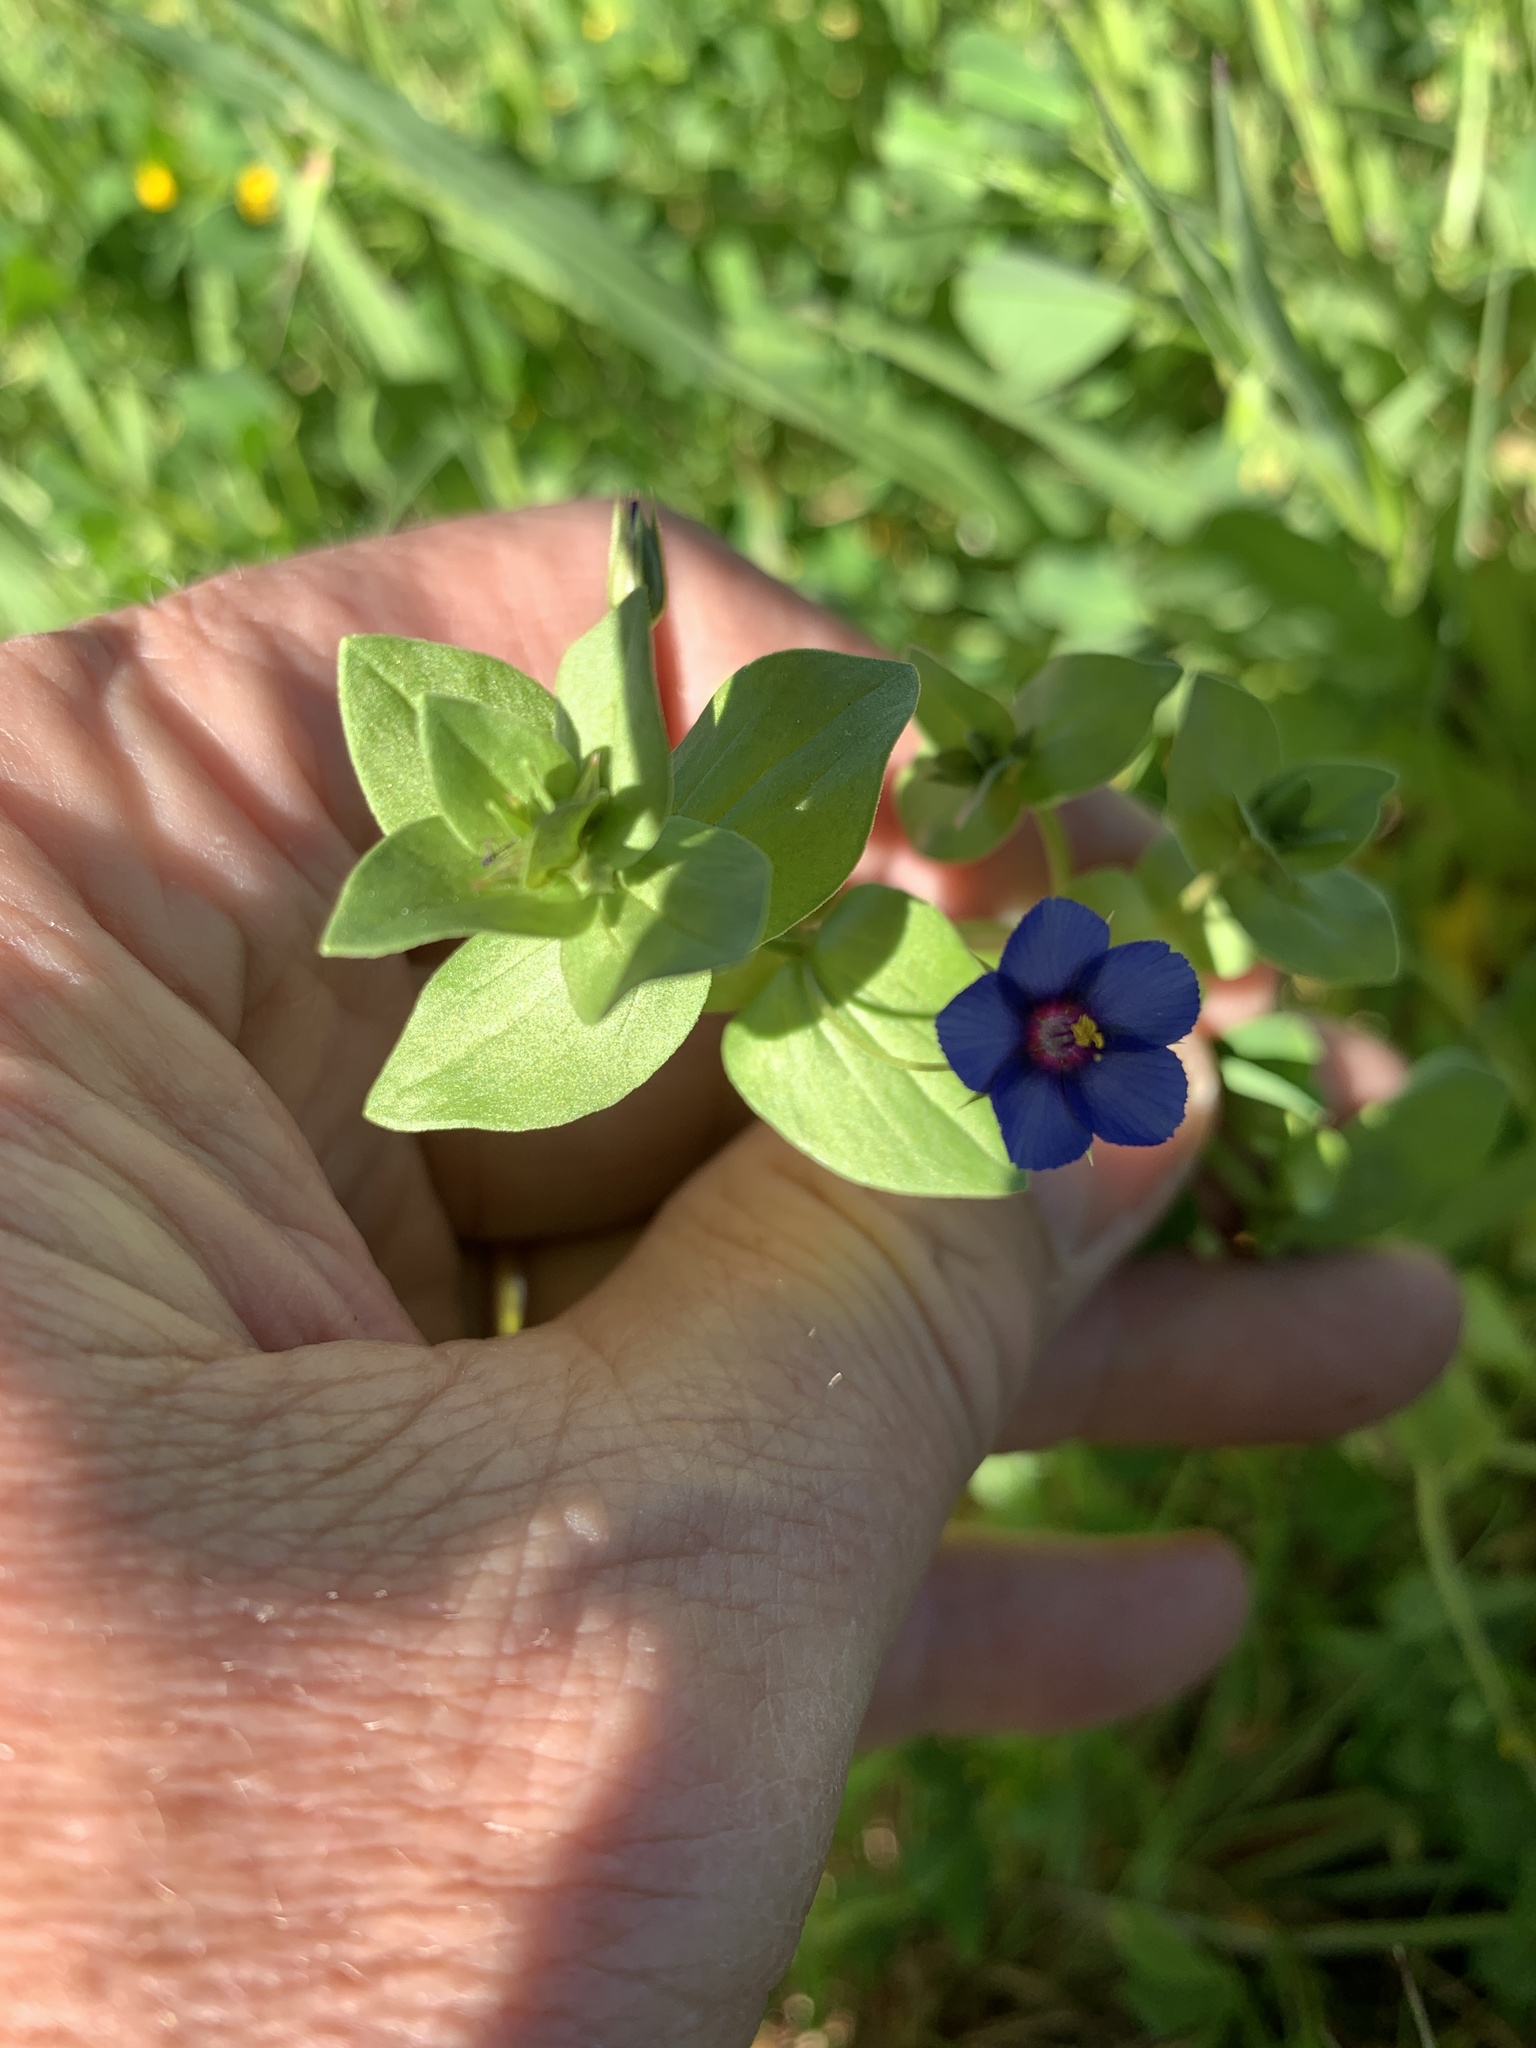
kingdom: Plantae
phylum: Tracheophyta
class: Magnoliopsida
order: Ericales
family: Primulaceae
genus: Lysimachia
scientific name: Lysimachia loeflingii
